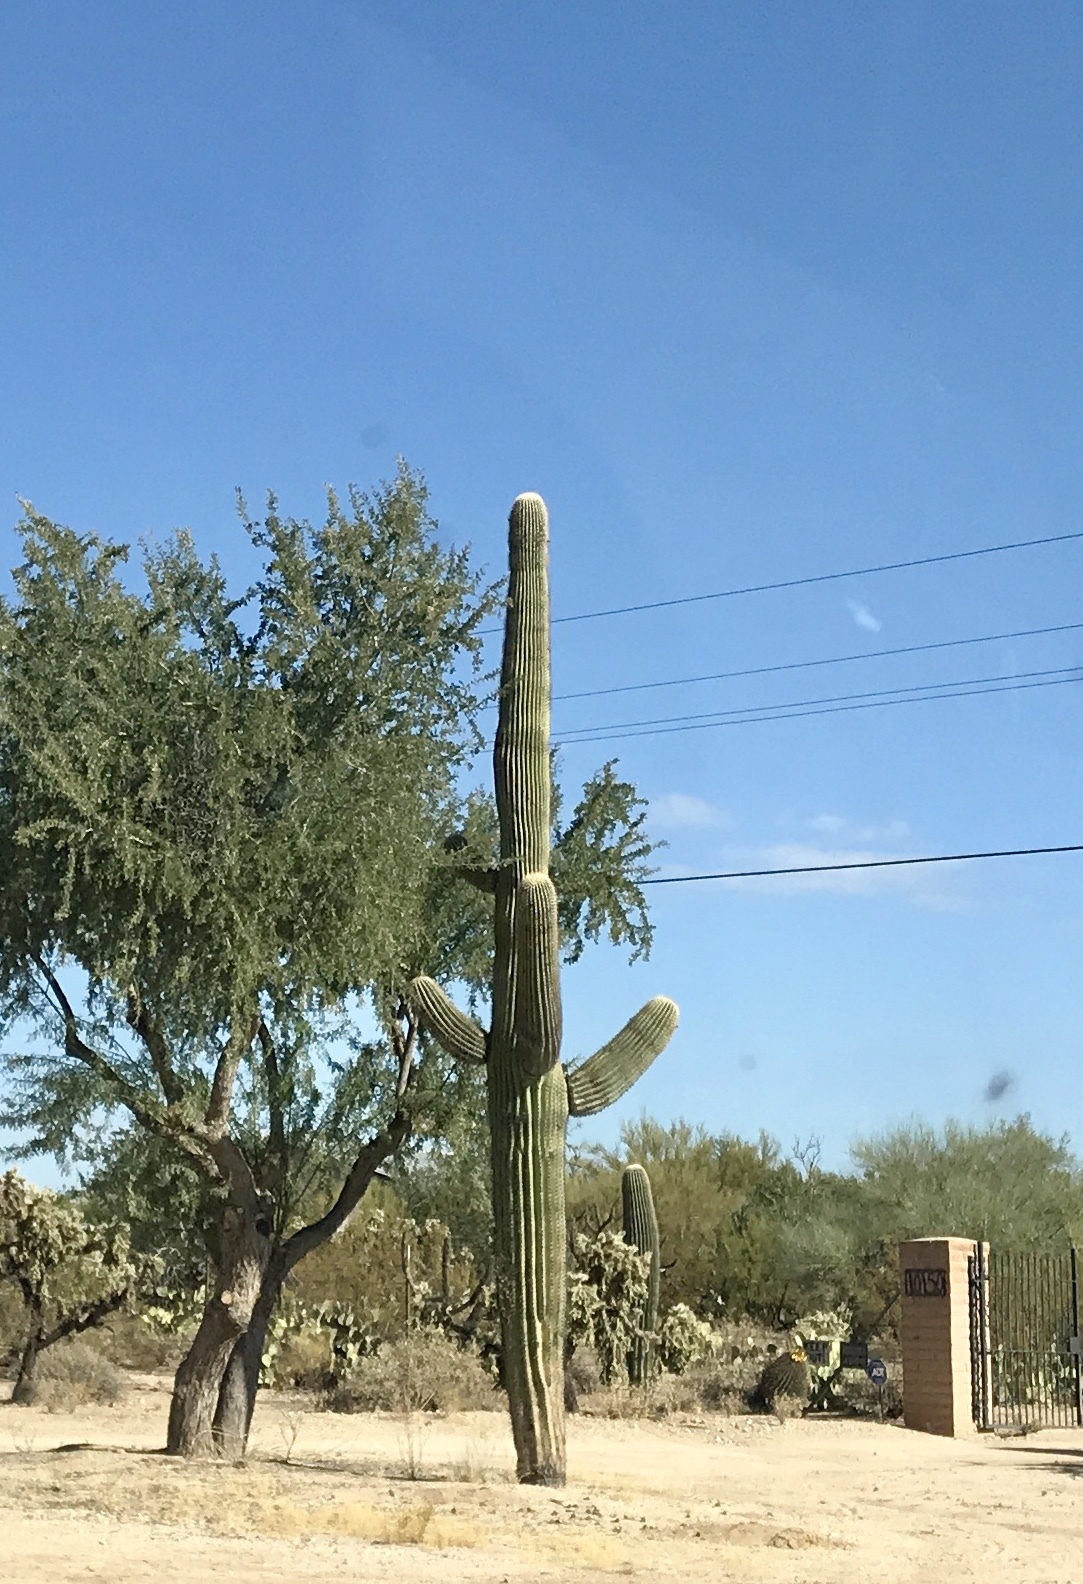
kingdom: Plantae
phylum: Tracheophyta
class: Magnoliopsida
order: Caryophyllales
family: Cactaceae
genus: Carnegiea
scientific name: Carnegiea gigantea
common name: Saguaro
